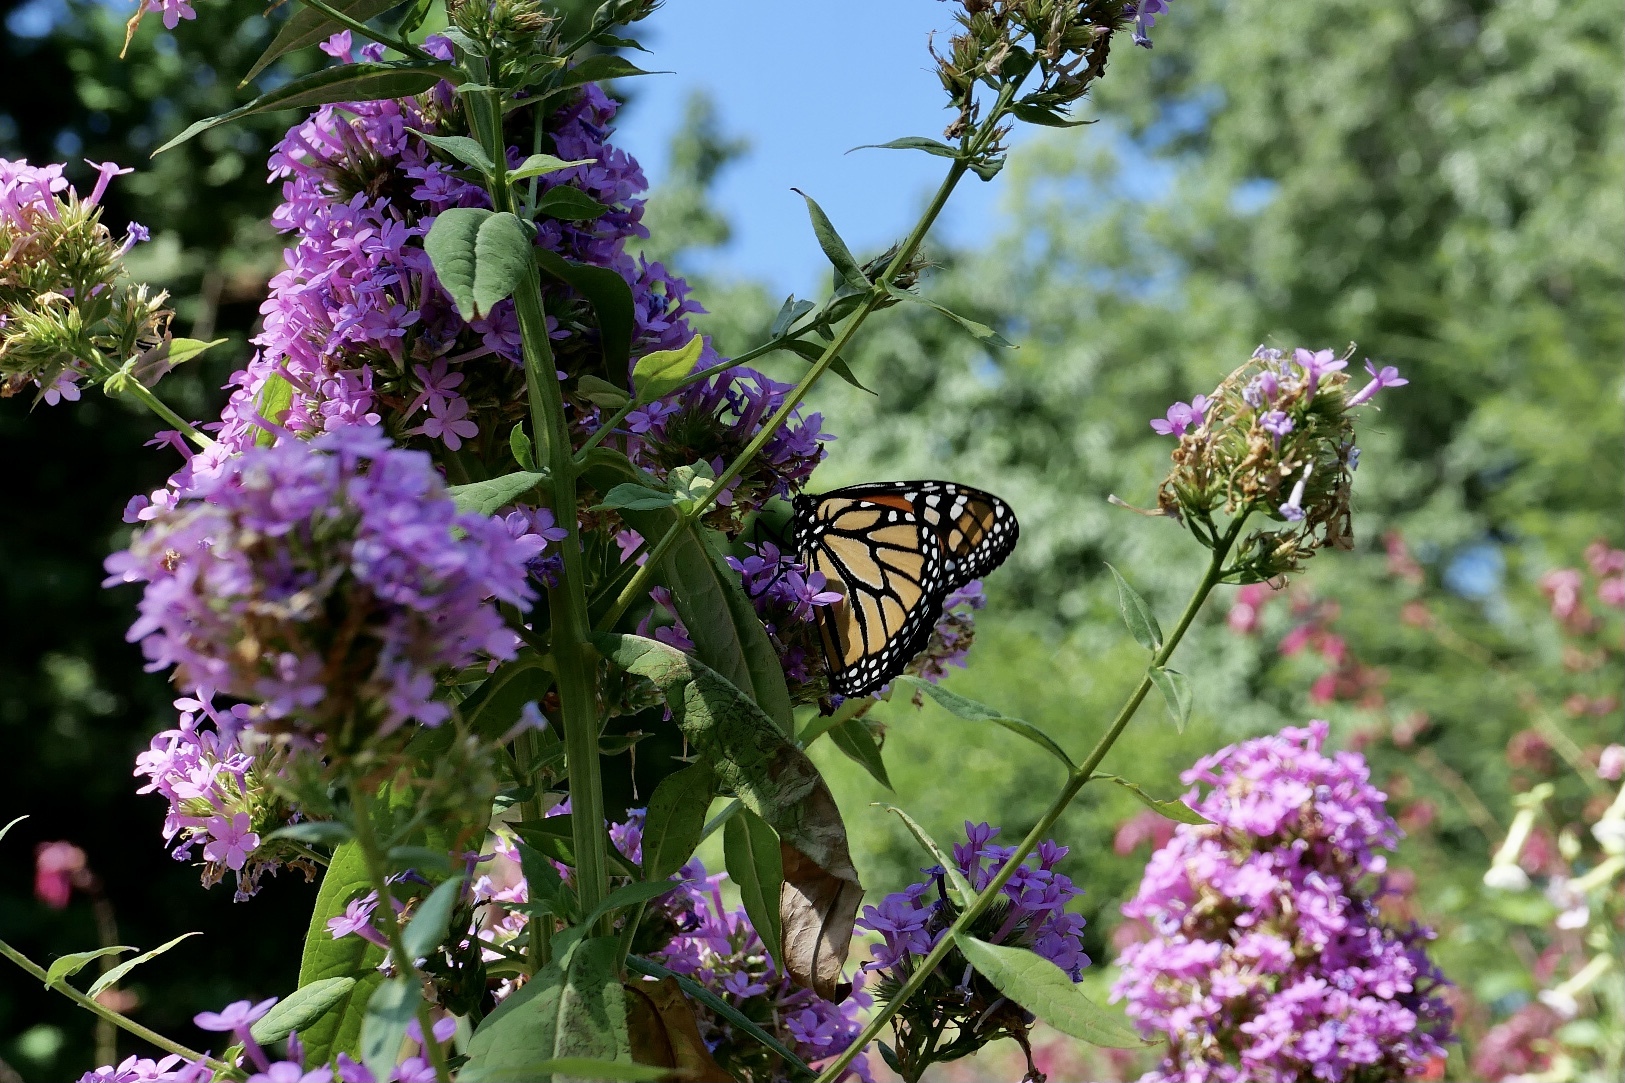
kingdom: Animalia
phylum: Arthropoda
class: Insecta
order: Lepidoptera
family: Nymphalidae
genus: Danaus
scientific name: Danaus plexippus
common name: Monarch
